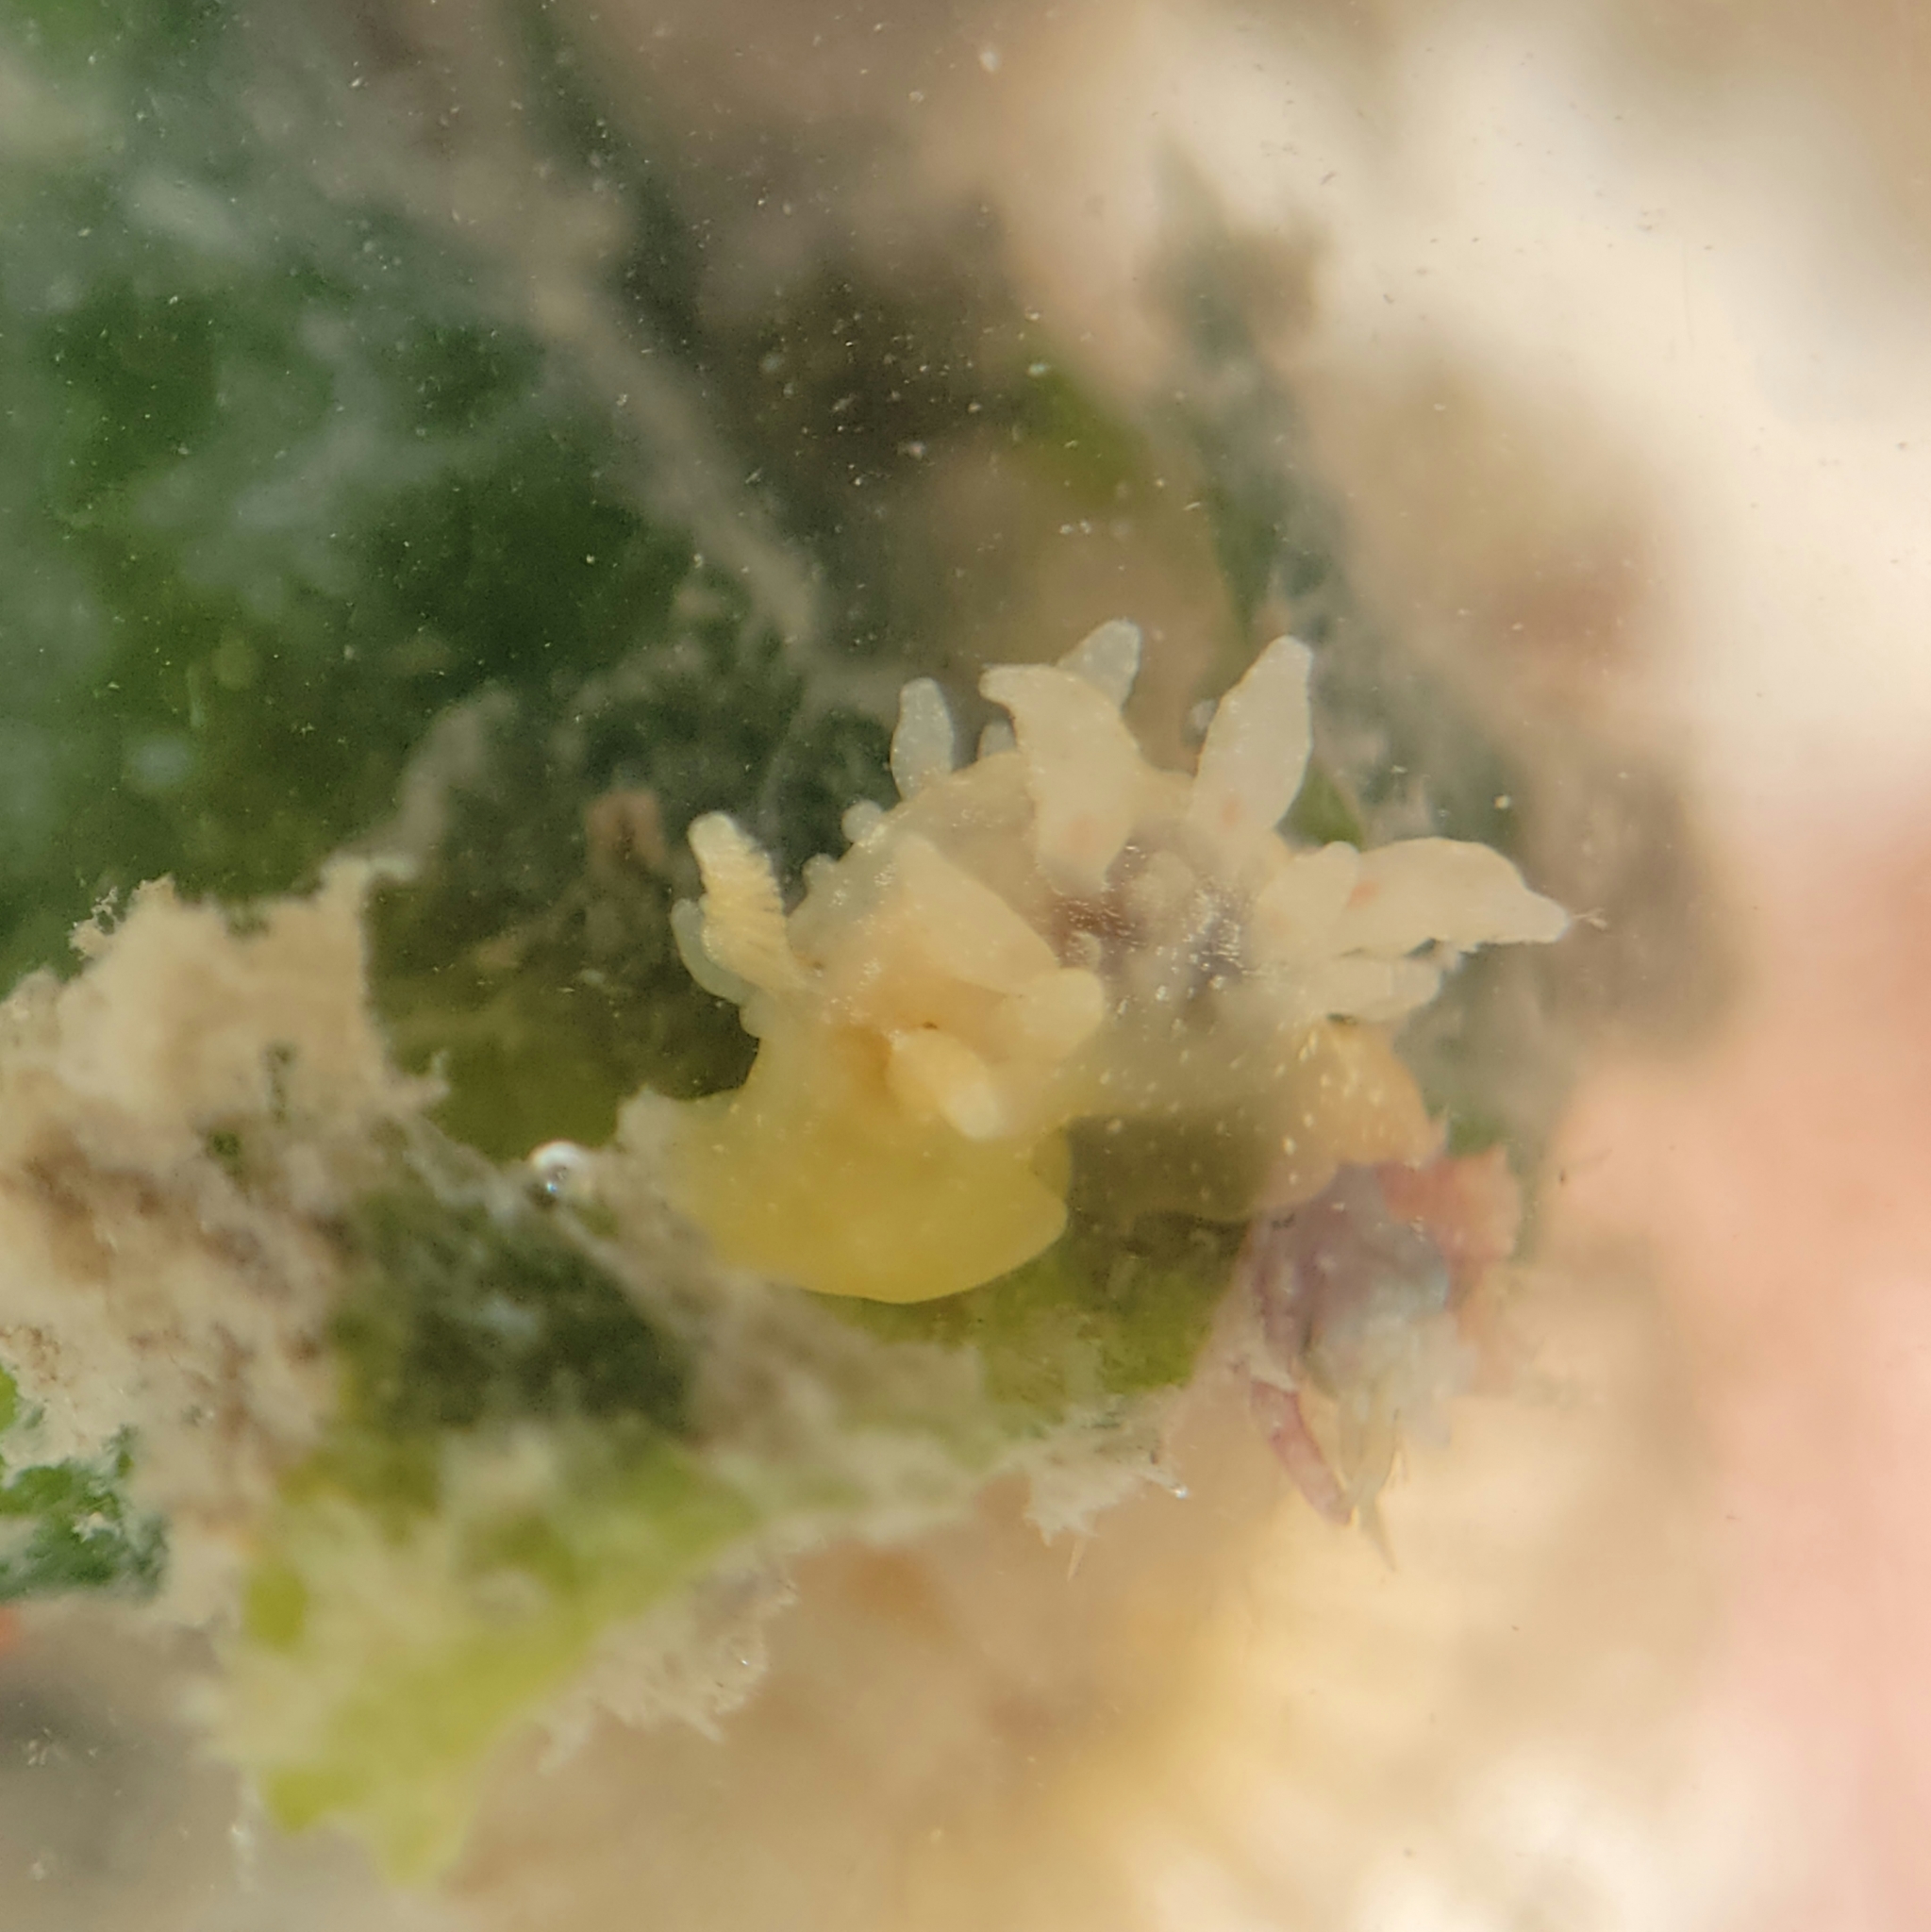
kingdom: Animalia
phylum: Mollusca
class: Gastropoda
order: Nudibranchia
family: Dironidae
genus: Dirona
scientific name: Dirona picta
